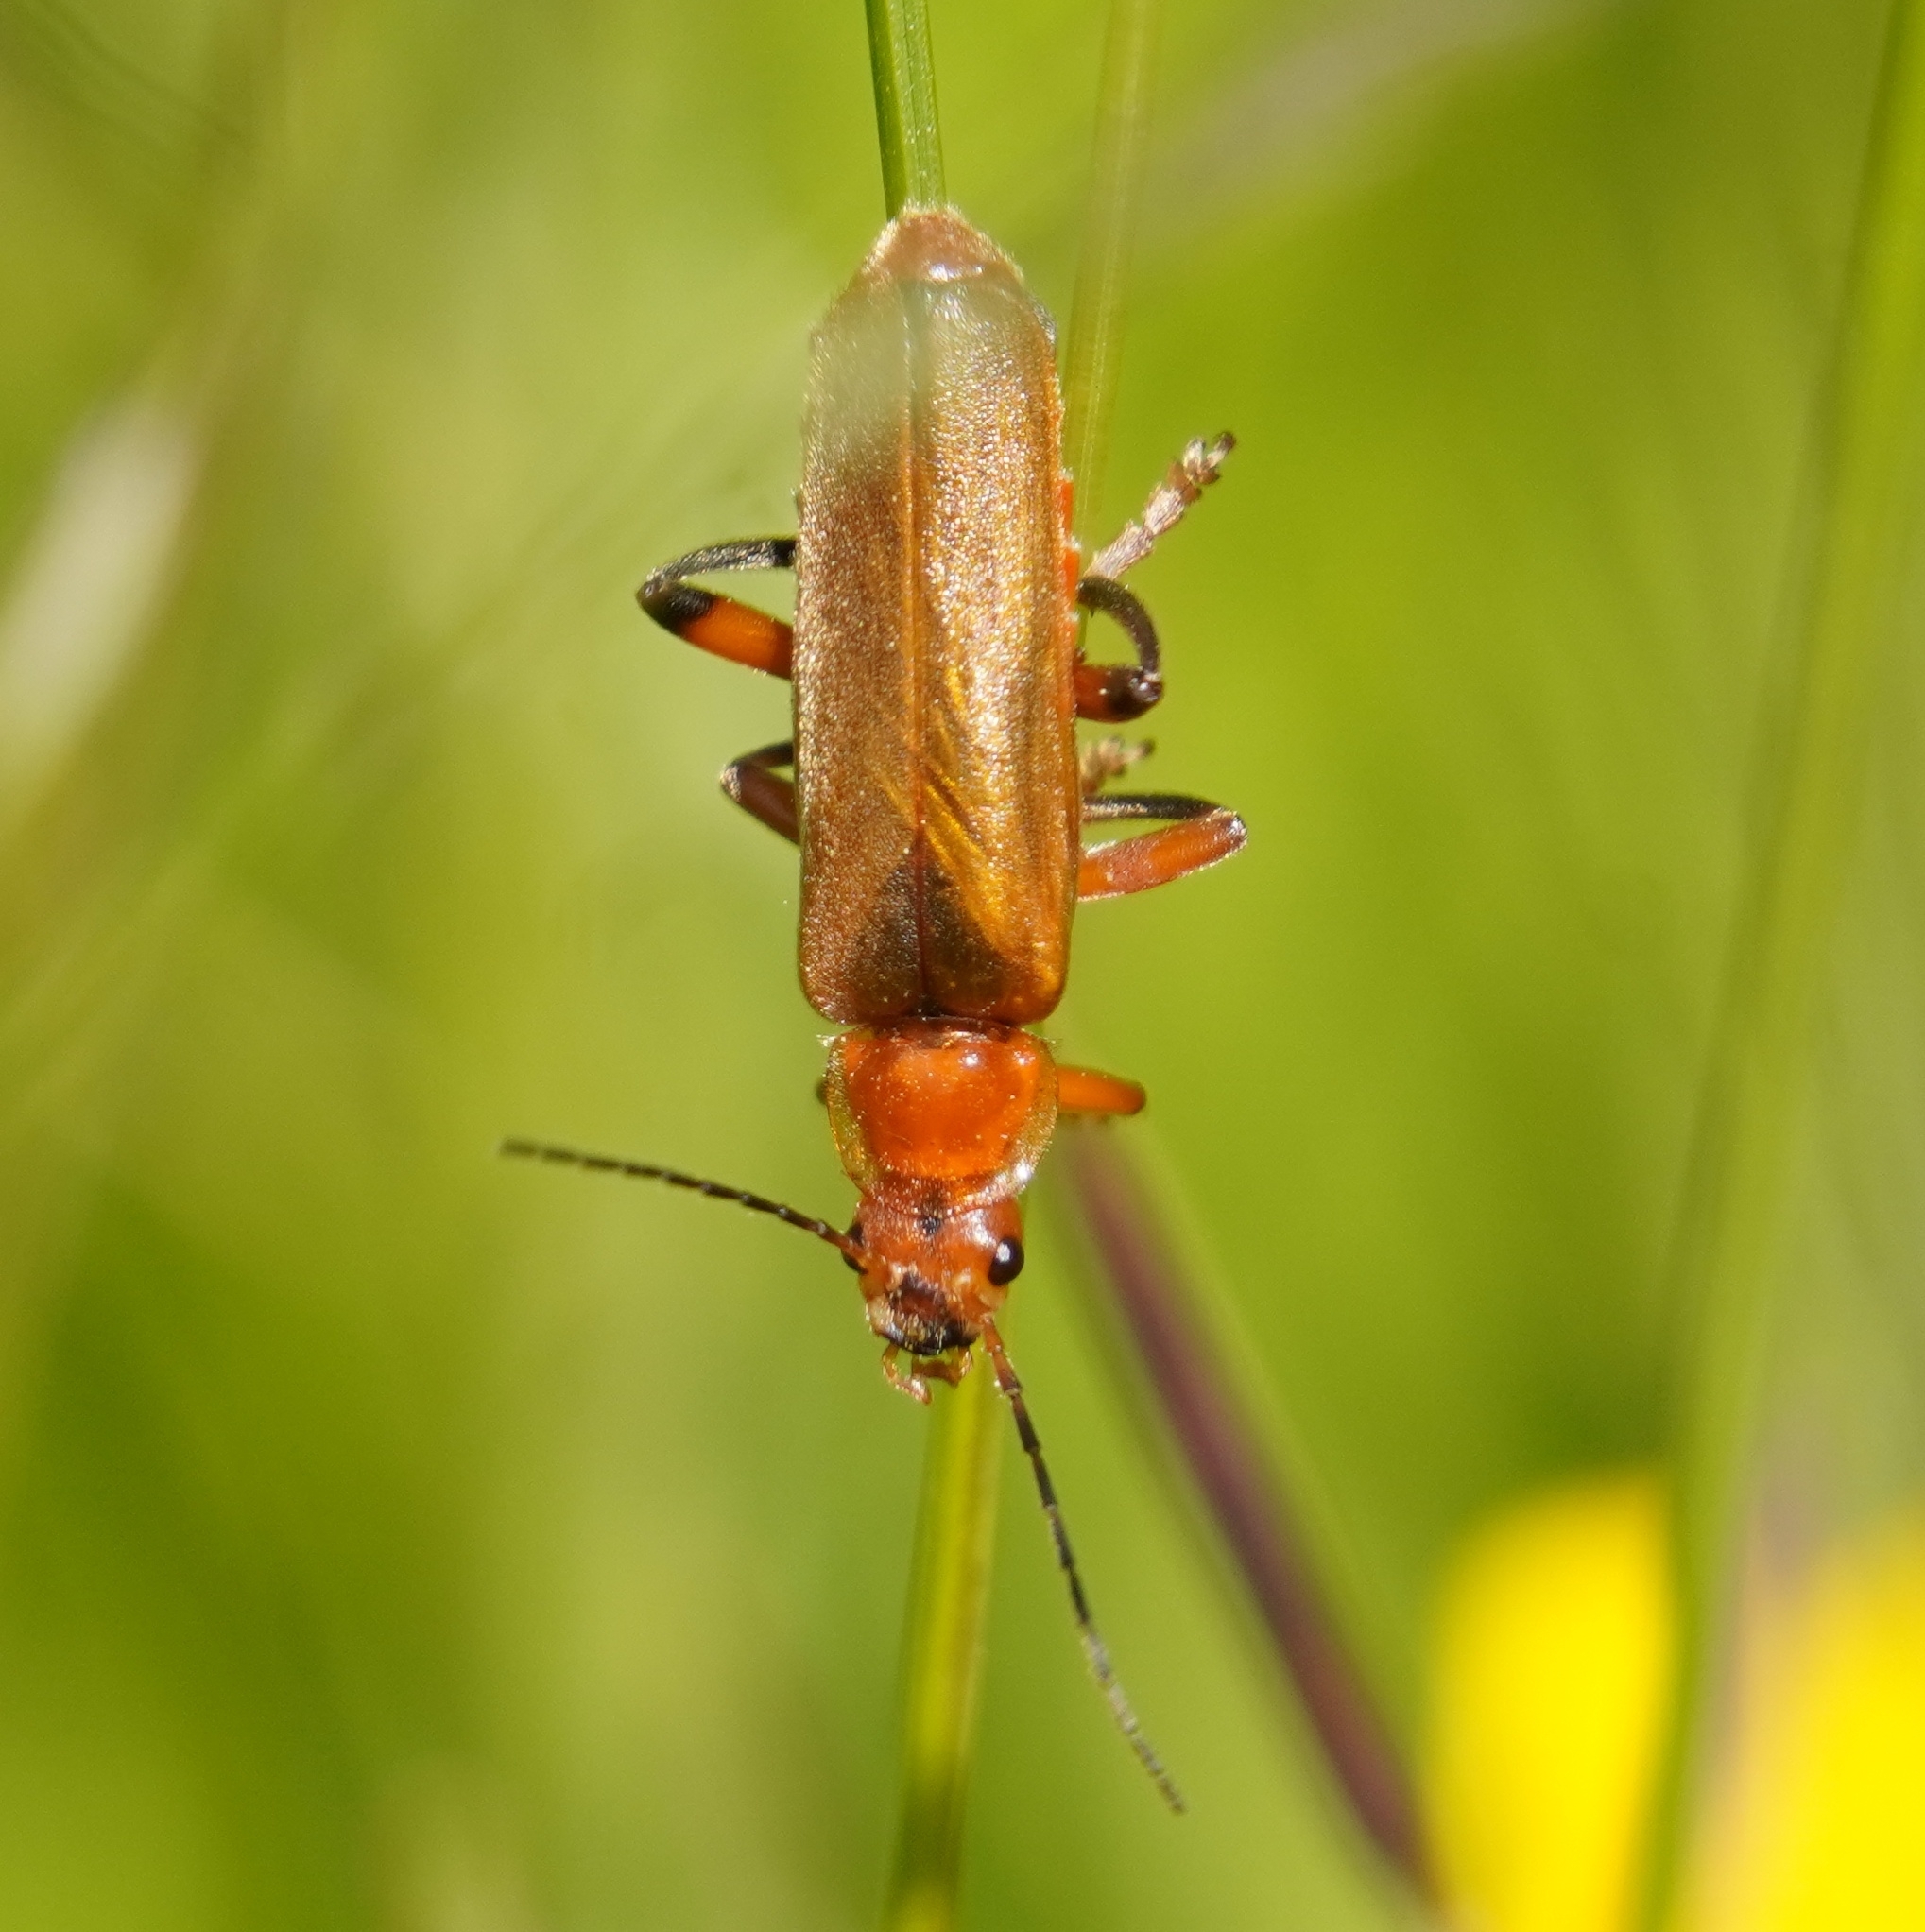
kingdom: Animalia
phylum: Arthropoda
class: Insecta
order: Coleoptera
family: Cantharidae
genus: Cantharis
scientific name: Cantharis livida
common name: Livid soldier beetle
